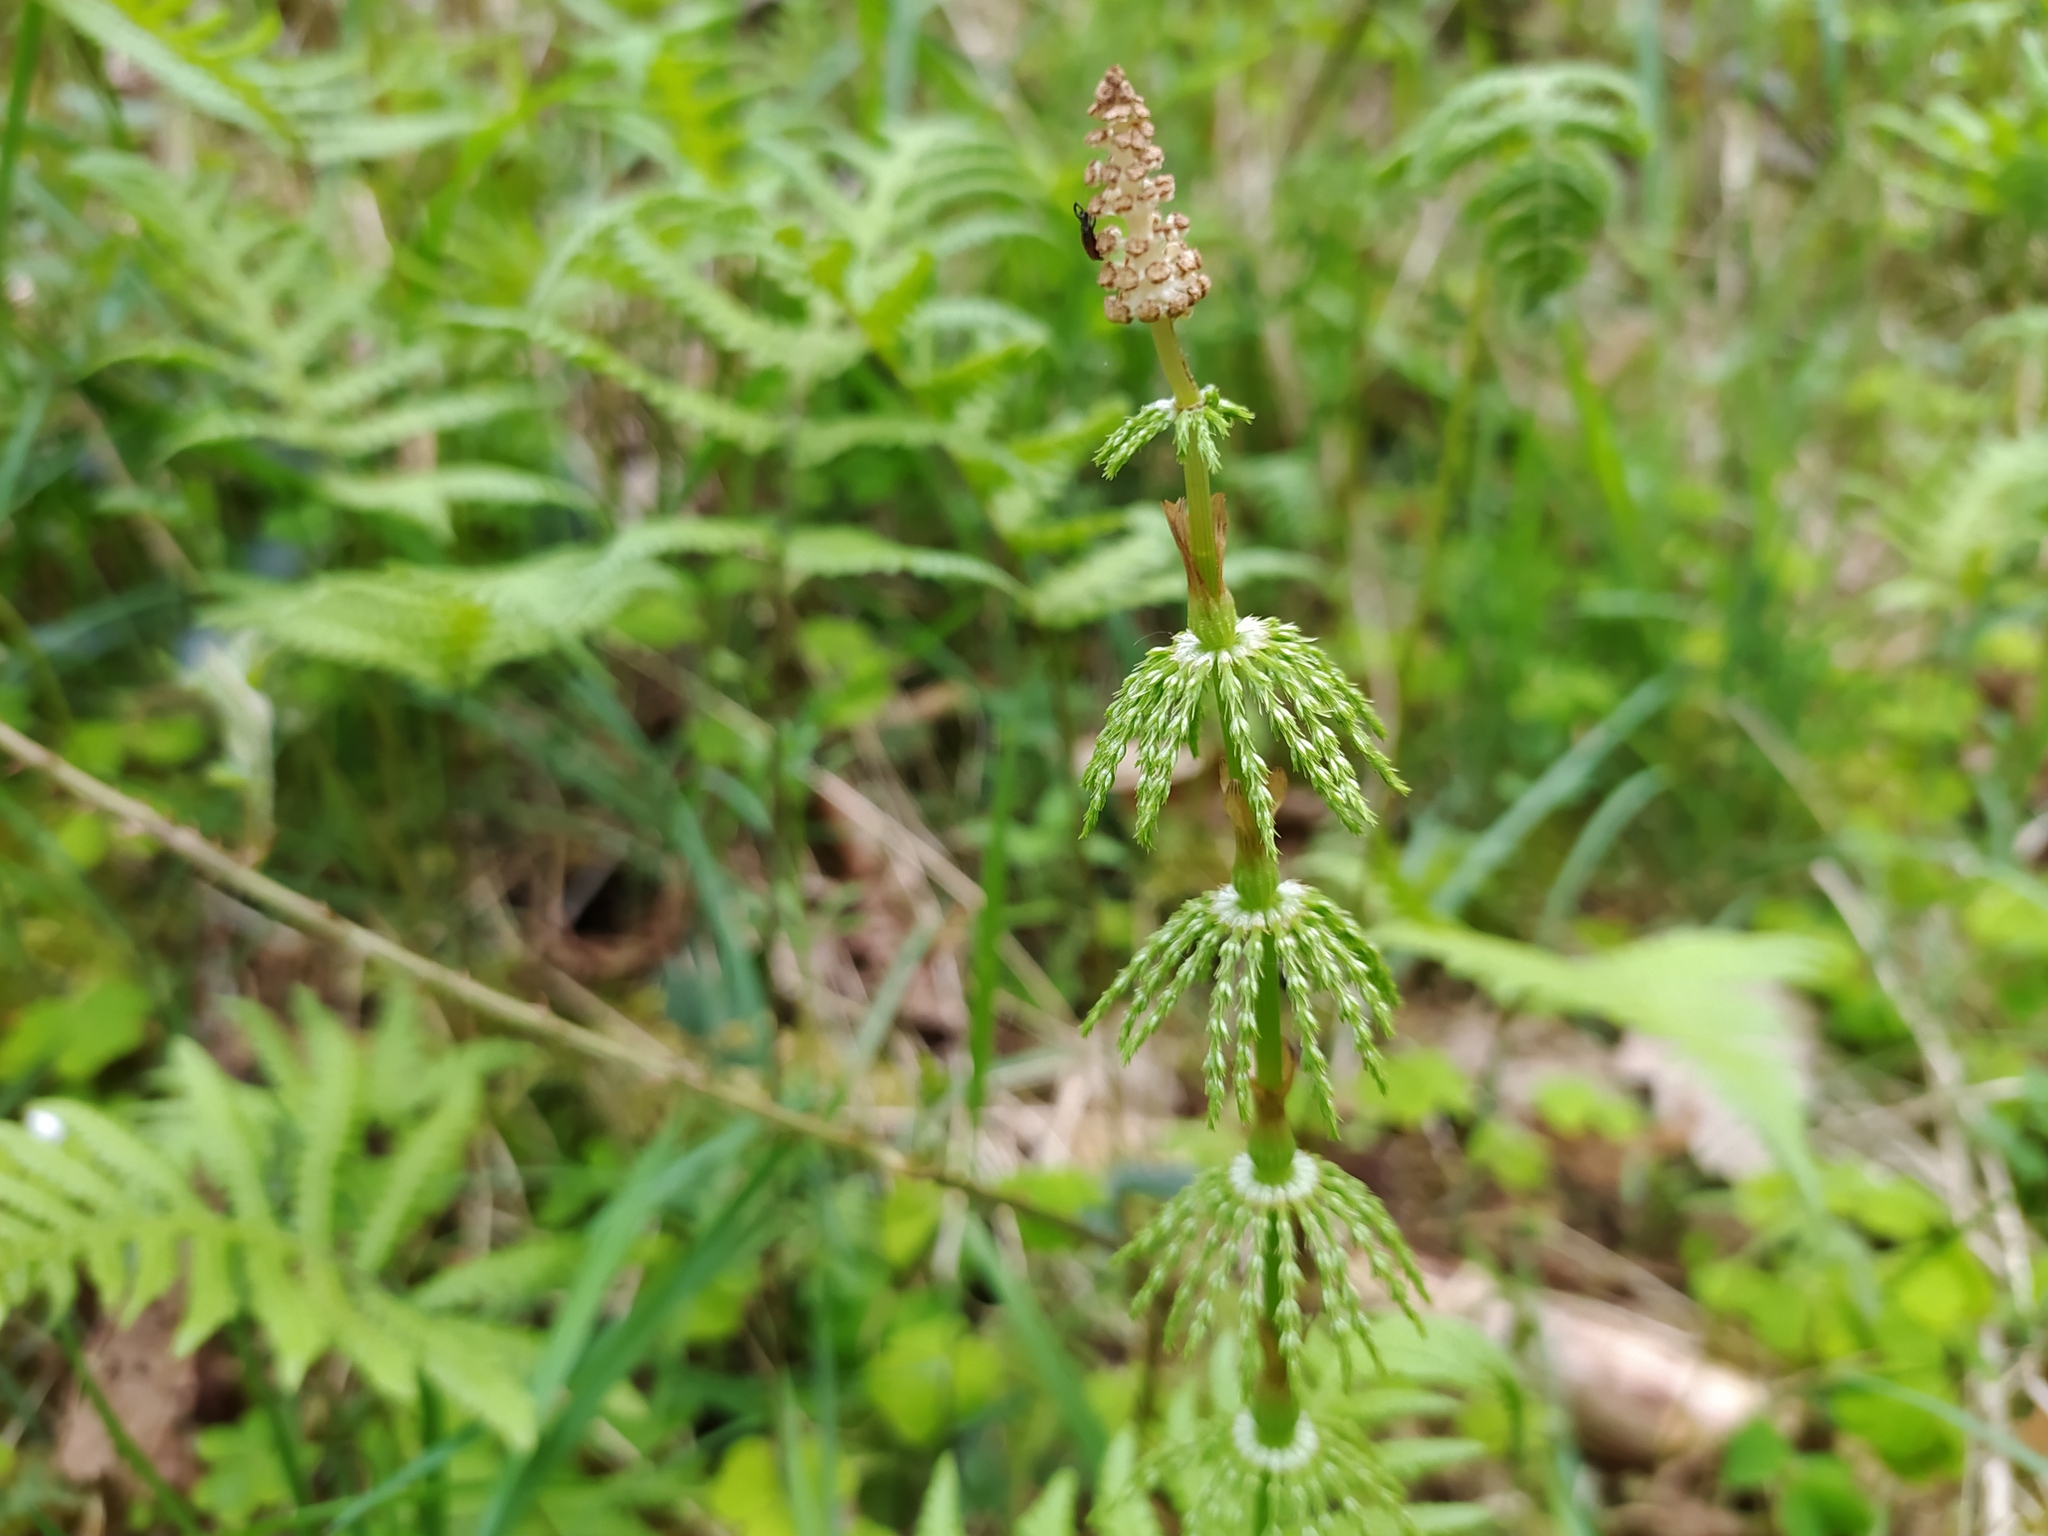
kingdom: Plantae
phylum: Tracheophyta
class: Polypodiopsida
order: Equisetales
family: Equisetaceae
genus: Equisetum
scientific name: Equisetum sylvaticum
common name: Wood horsetail
